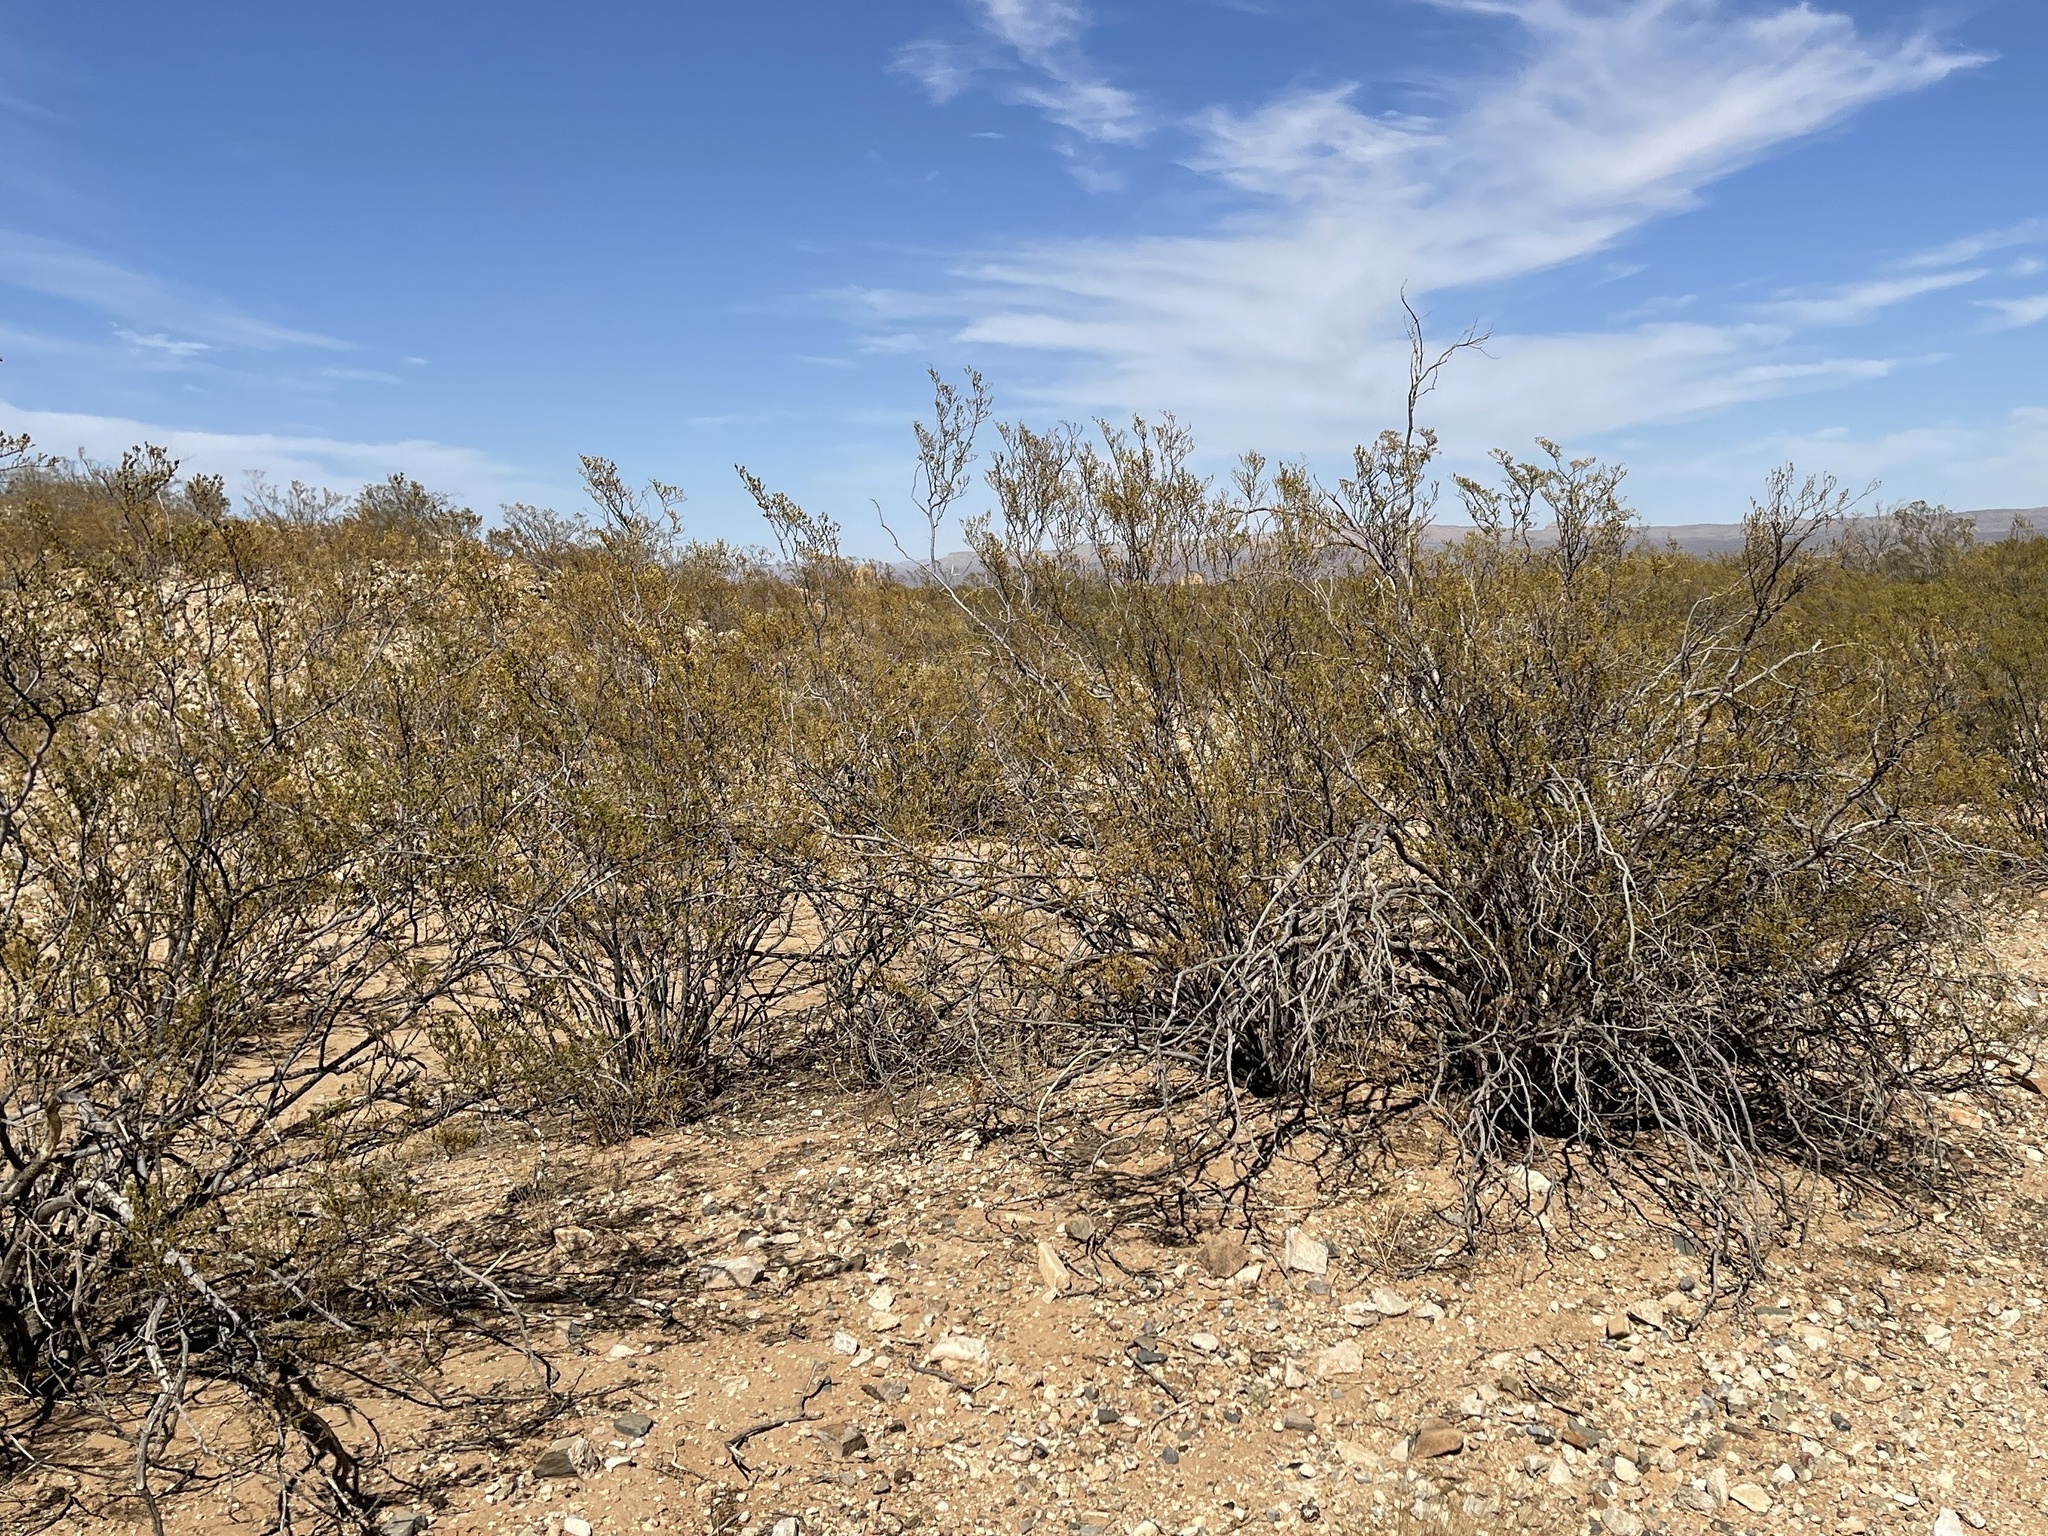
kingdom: Plantae
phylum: Tracheophyta
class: Magnoliopsida
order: Zygophyllales
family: Zygophyllaceae
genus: Larrea
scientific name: Larrea tridentata
